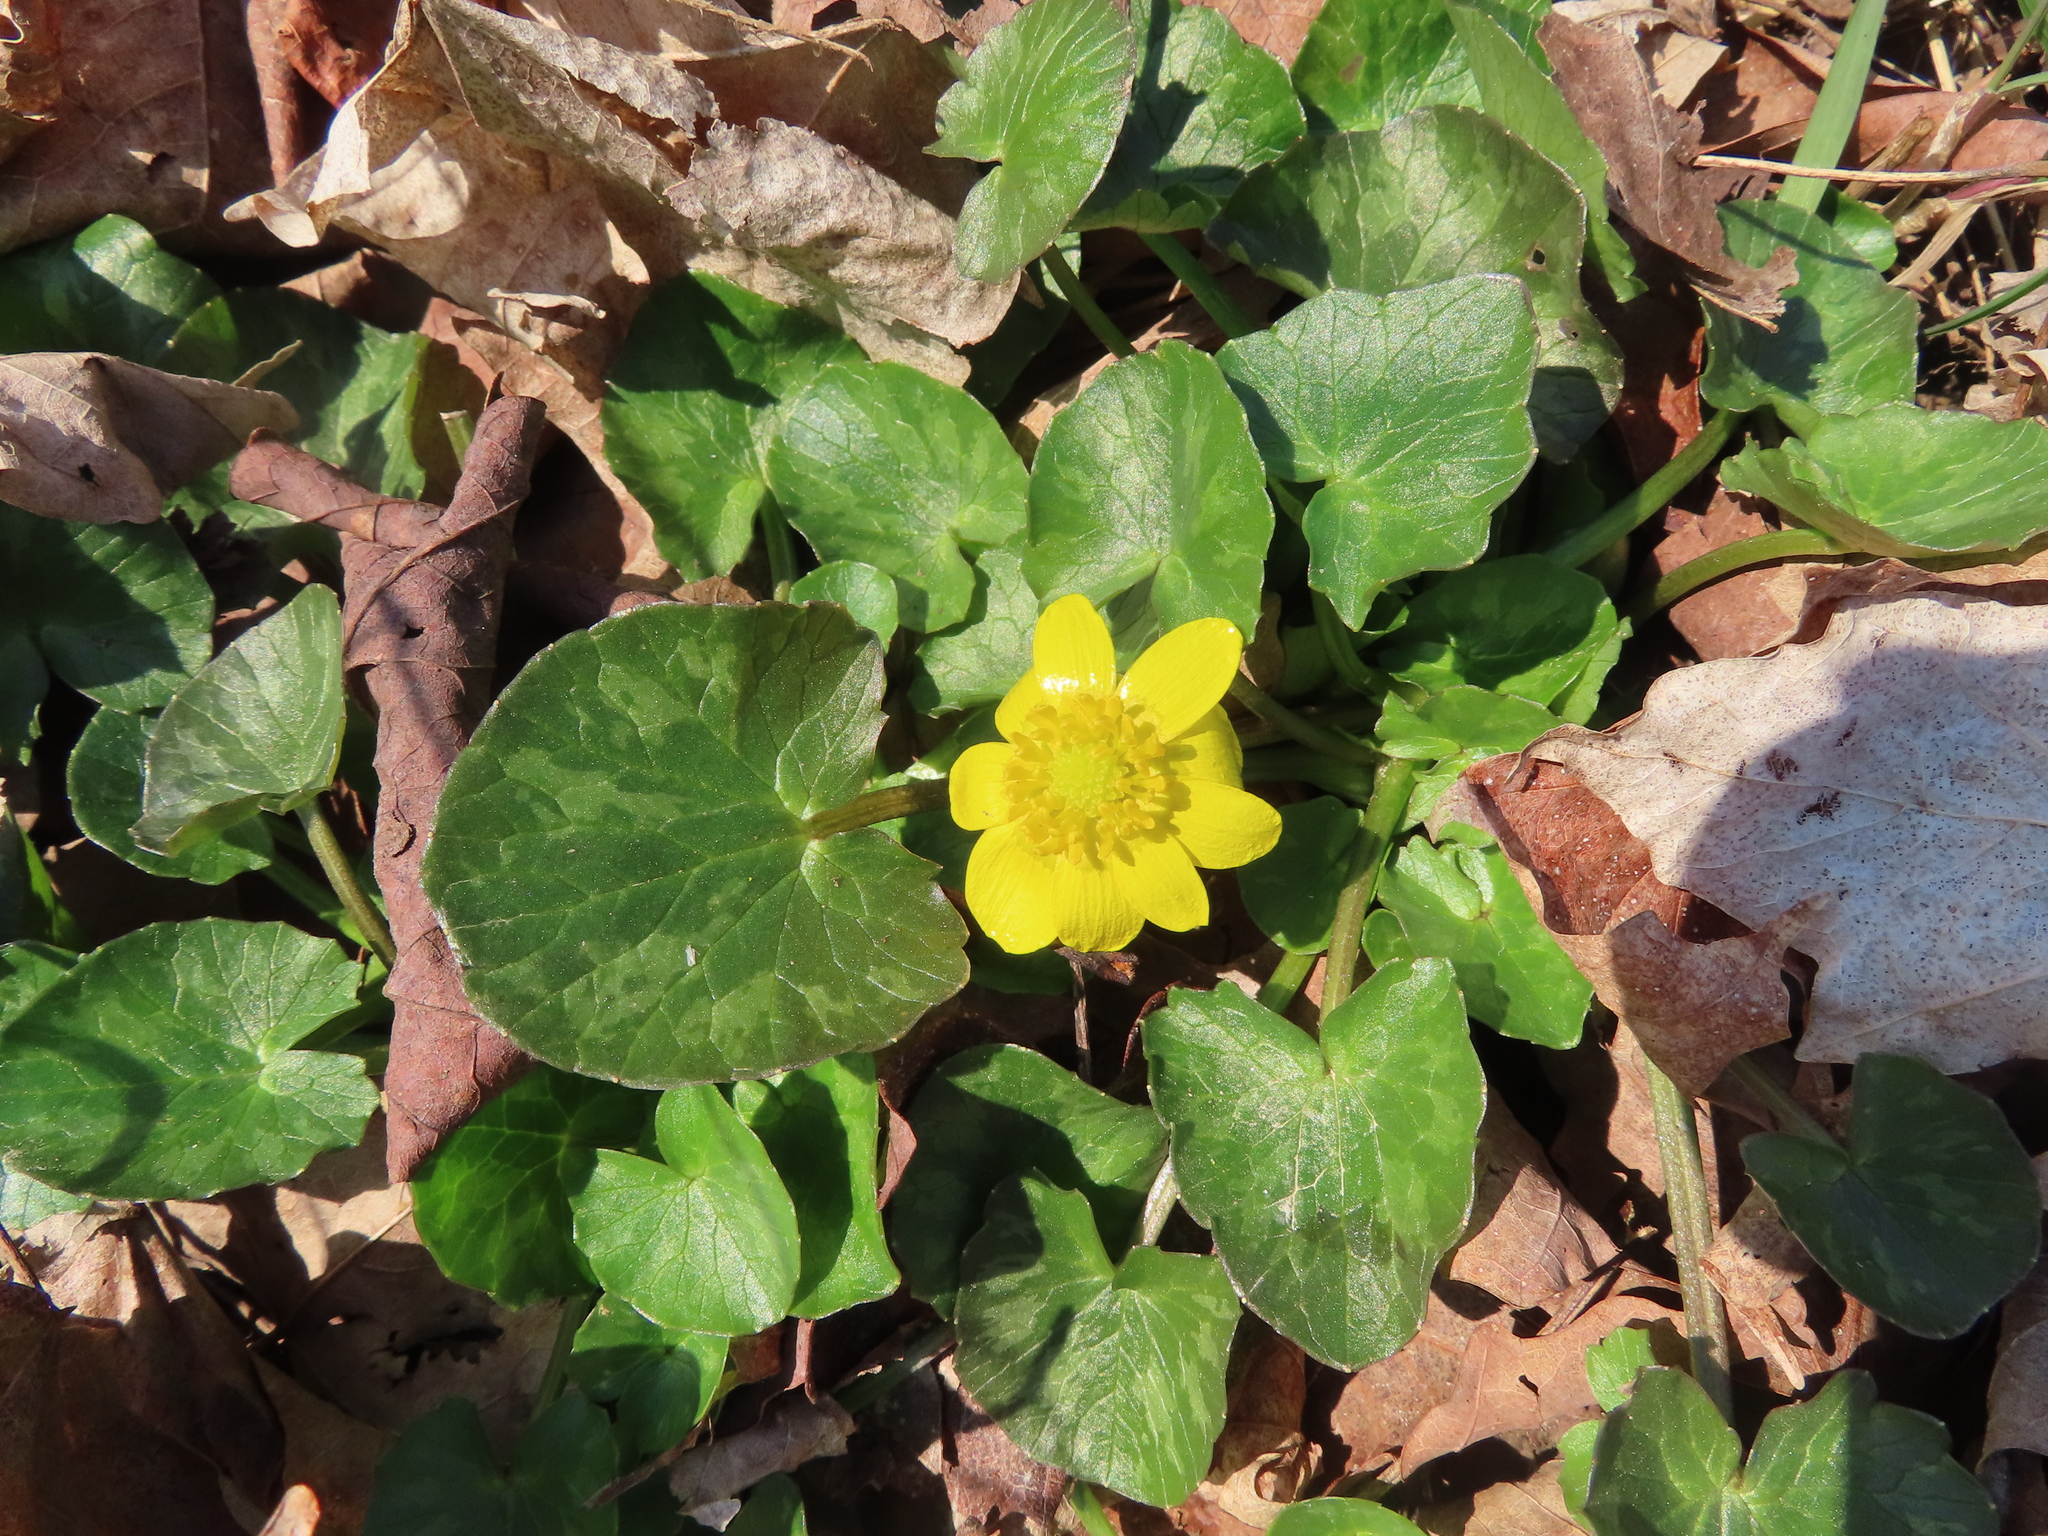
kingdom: Plantae
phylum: Tracheophyta
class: Magnoliopsida
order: Ranunculales
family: Ranunculaceae
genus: Ficaria
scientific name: Ficaria verna
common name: Lesser celandine
